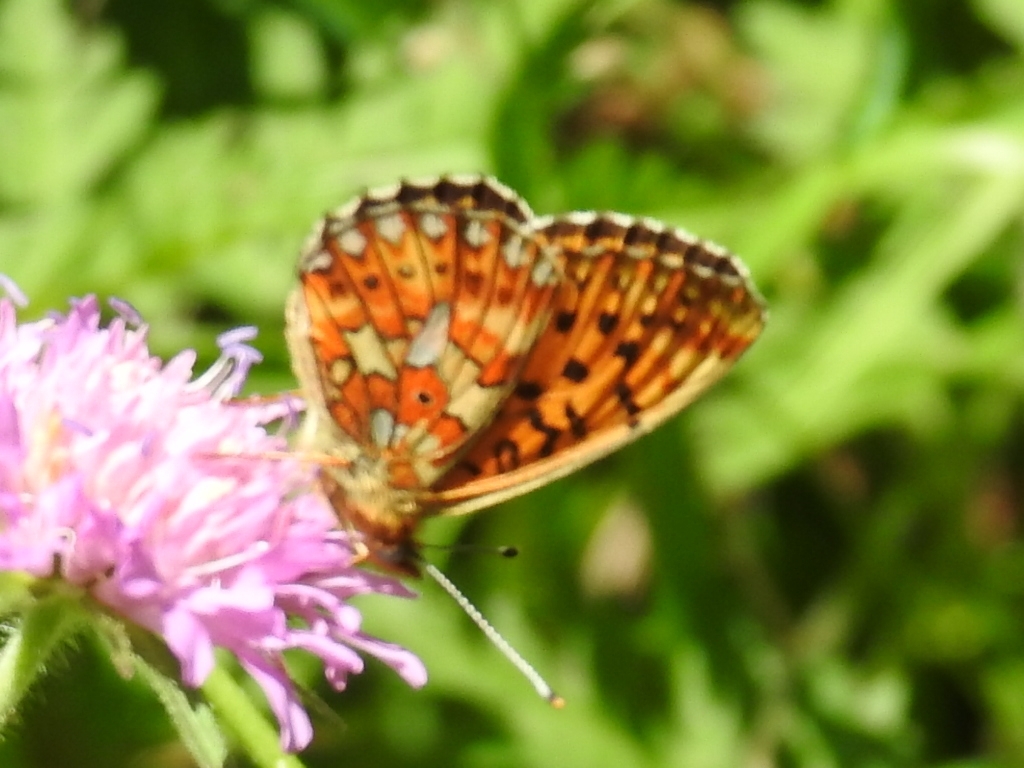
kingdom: Animalia
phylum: Arthropoda
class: Insecta
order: Lepidoptera
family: Nymphalidae
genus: Clossiana
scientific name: Clossiana euphrosyne
